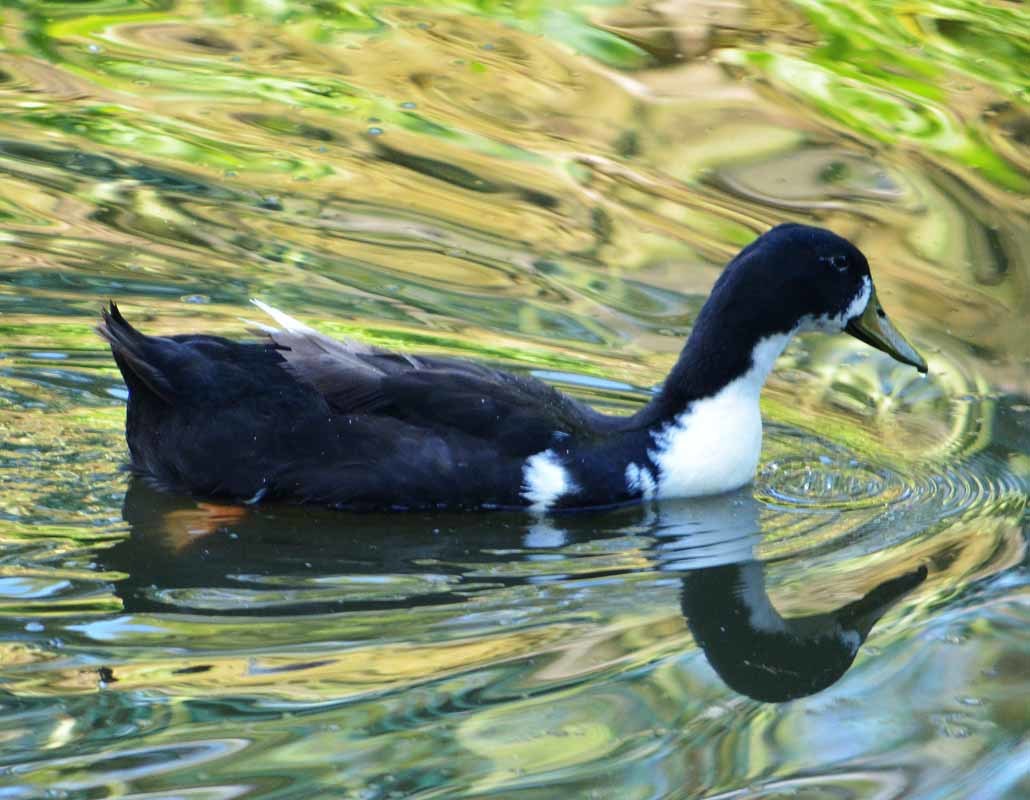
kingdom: Animalia
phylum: Chordata
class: Aves
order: Anseriformes
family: Anatidae
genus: Anas
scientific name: Anas platyrhynchos
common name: Mallard
